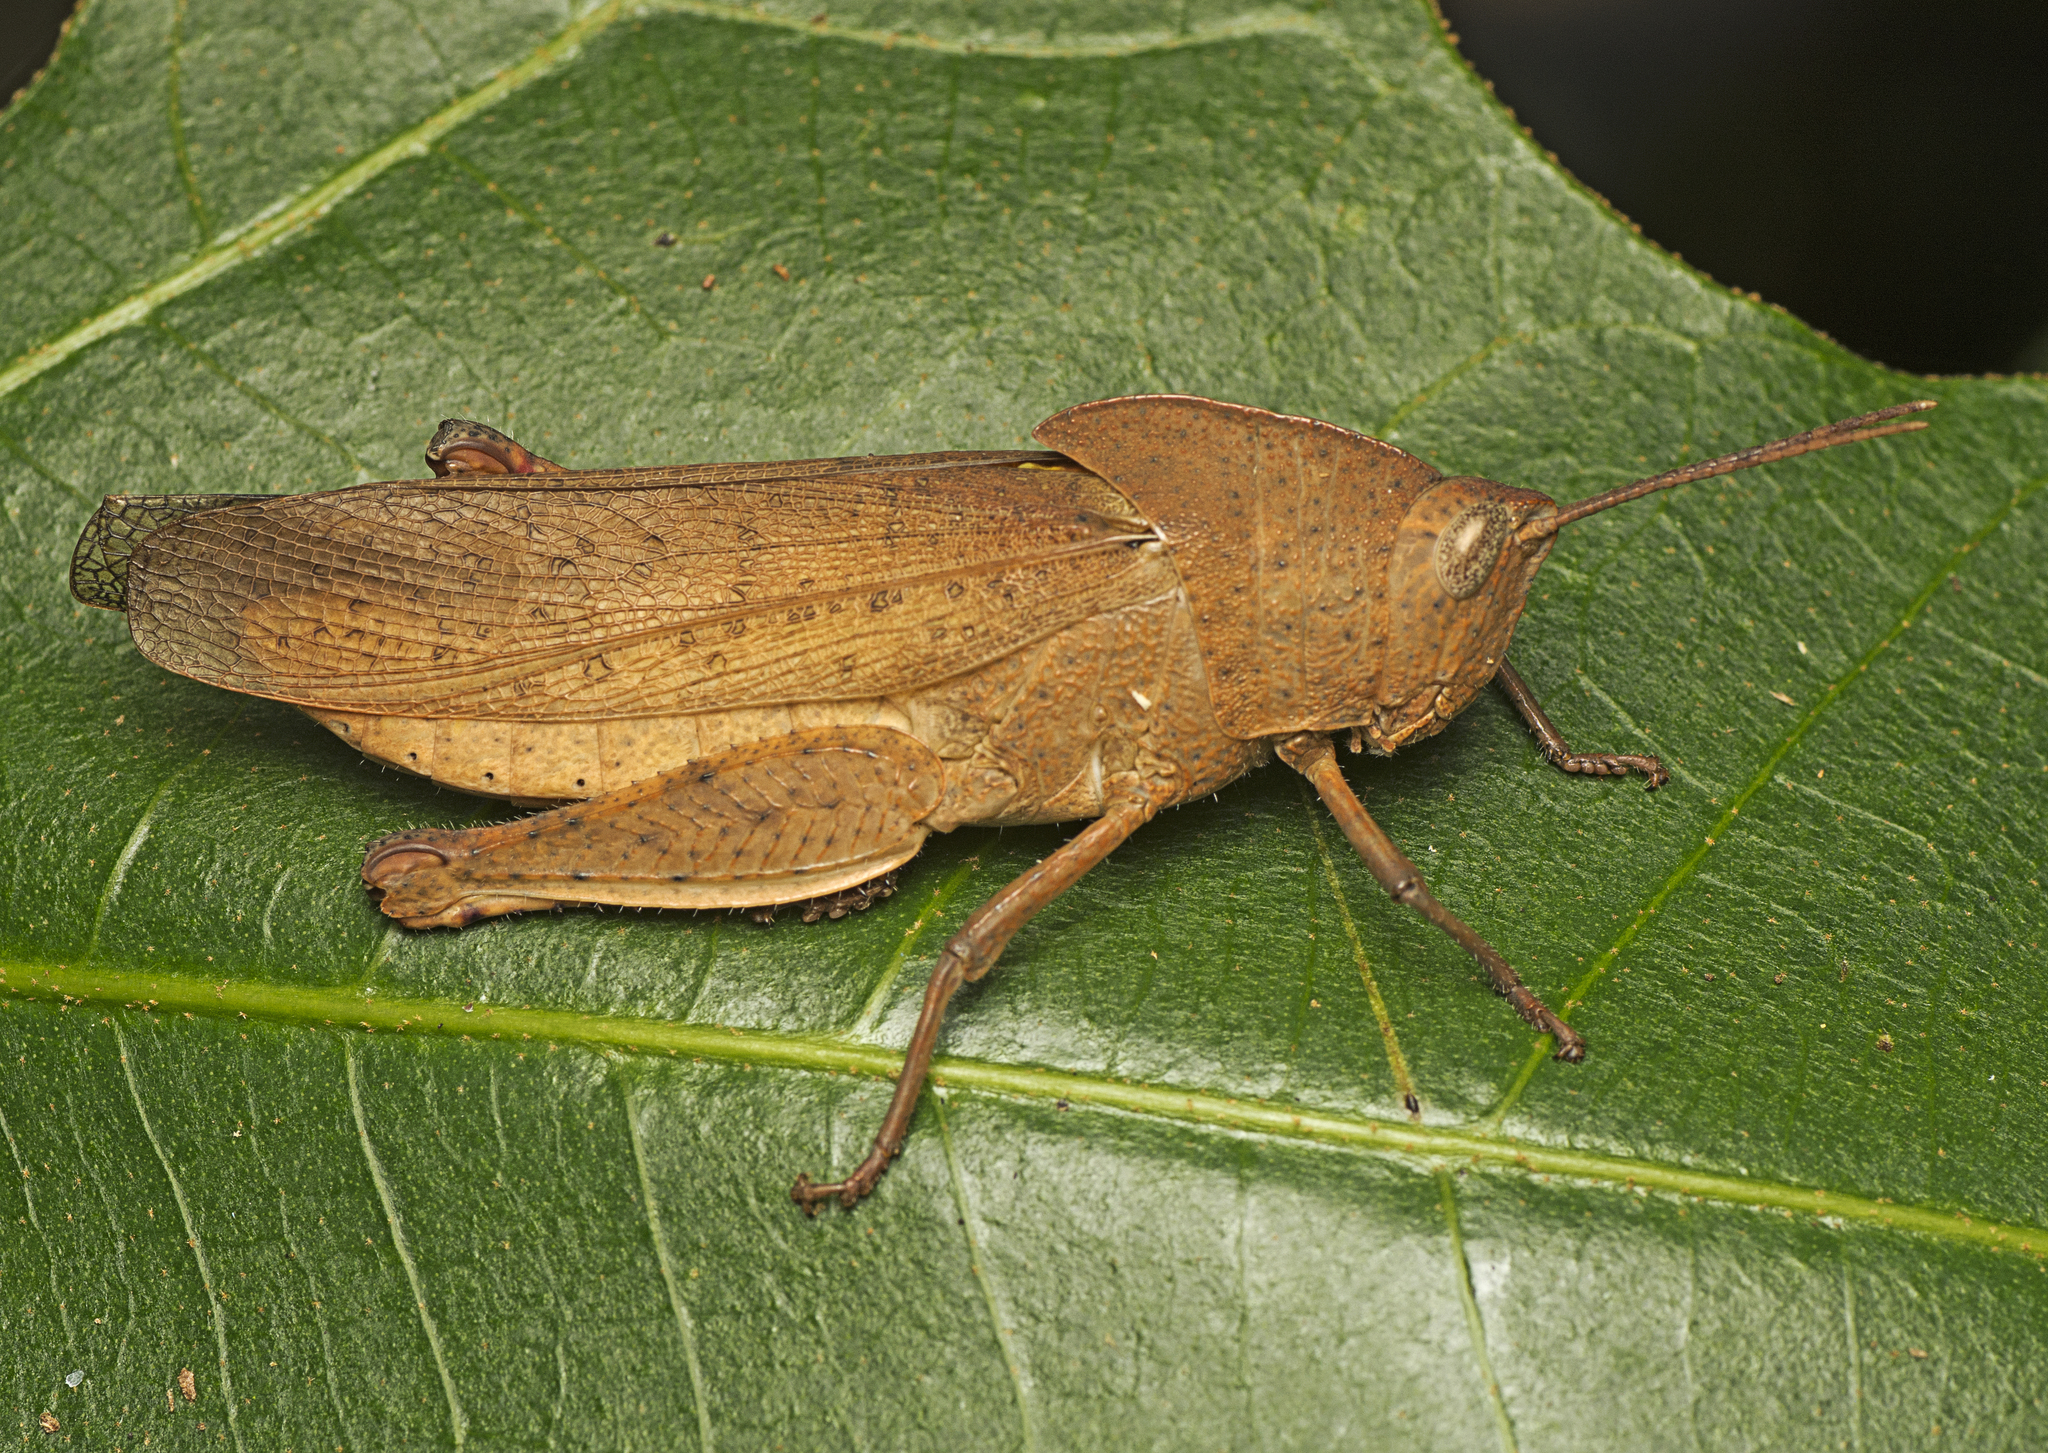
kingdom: Animalia
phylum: Arthropoda
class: Insecta
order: Orthoptera
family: Acrididae
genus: Goniaea
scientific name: Goniaea australasiae
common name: Gumleaf grasshopper
